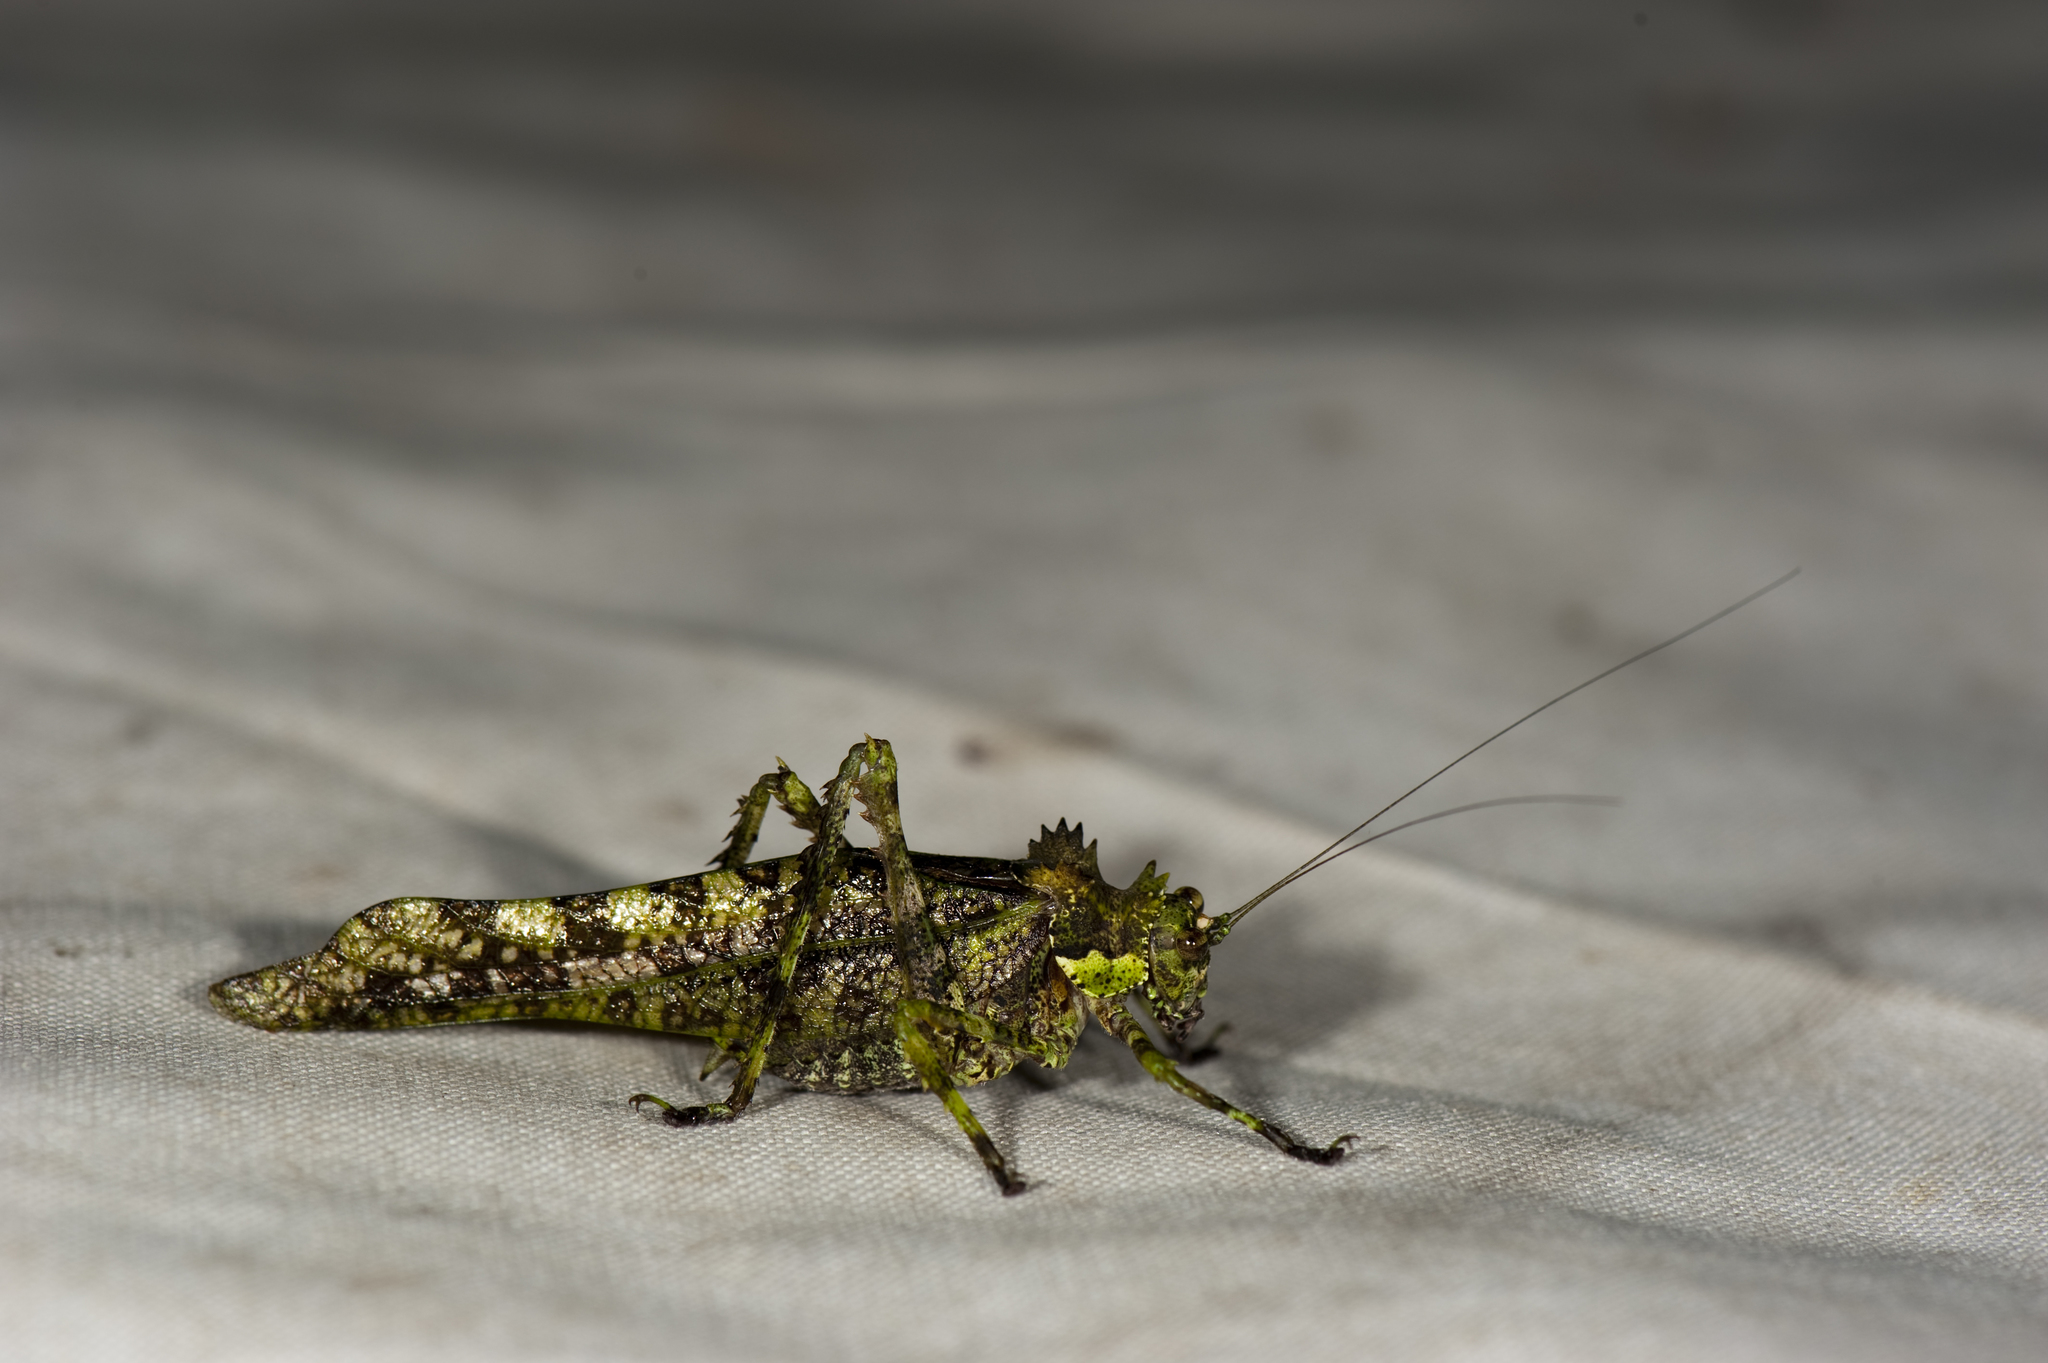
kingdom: Animalia
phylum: Arthropoda
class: Insecta
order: Orthoptera
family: Tettigoniidae
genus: Trachyzulpha
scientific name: Trachyzulpha formosana
